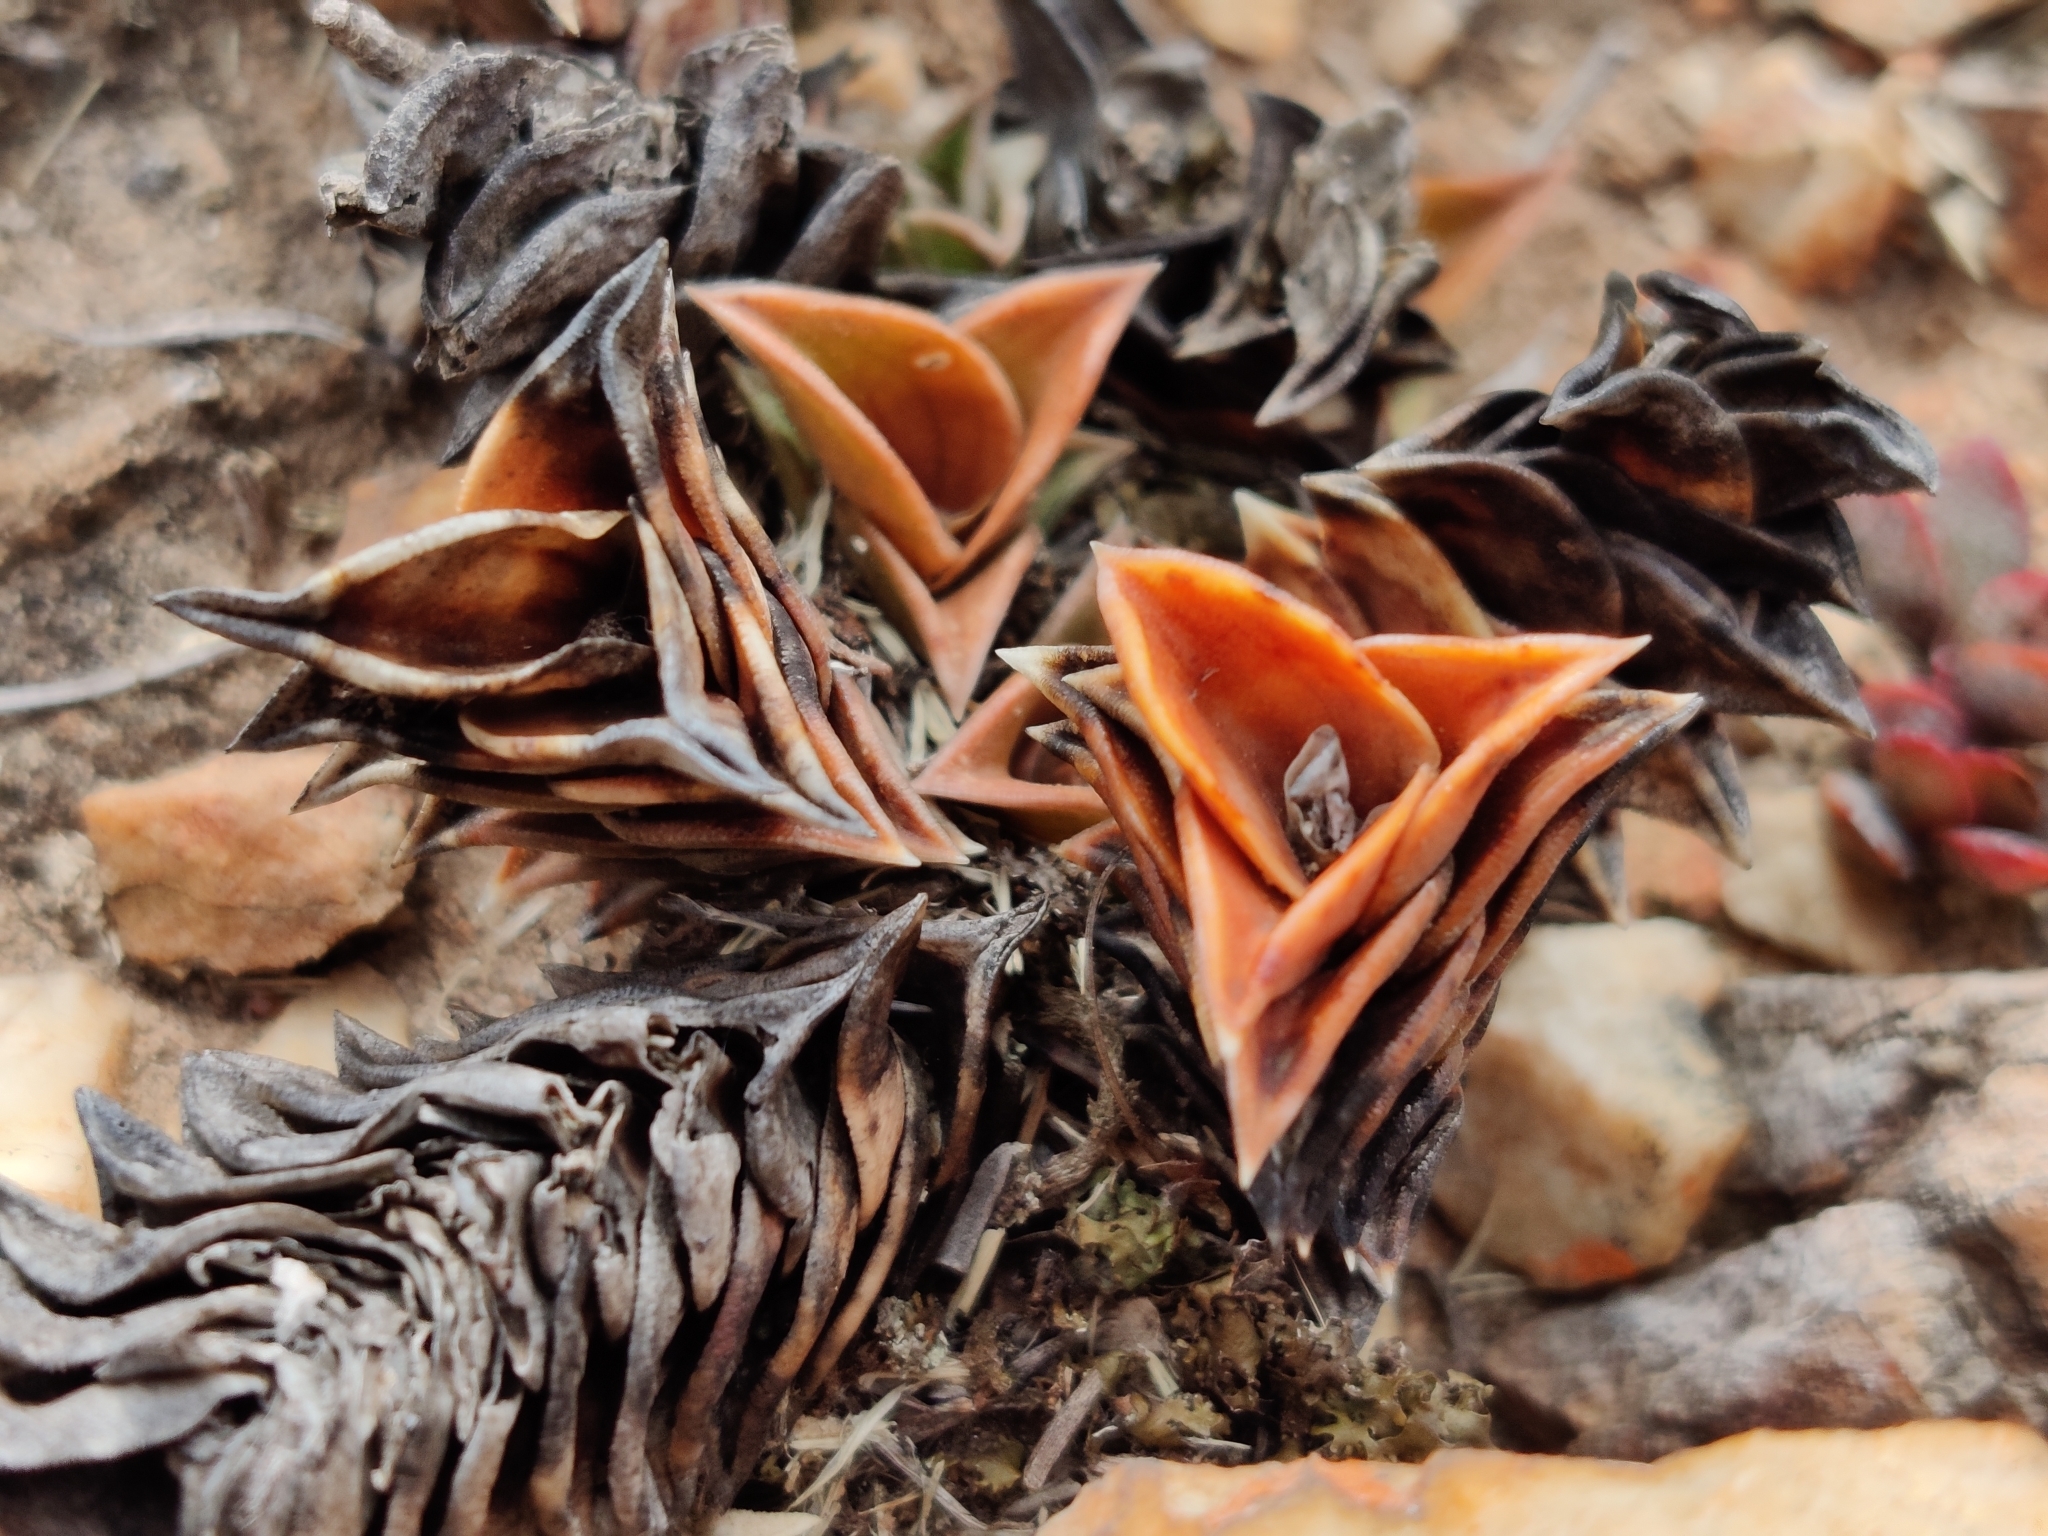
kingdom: Plantae
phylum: Tracheophyta
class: Liliopsida
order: Asparagales
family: Asphodelaceae
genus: Haworthiopsis
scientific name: Haworthiopsis viscosa
